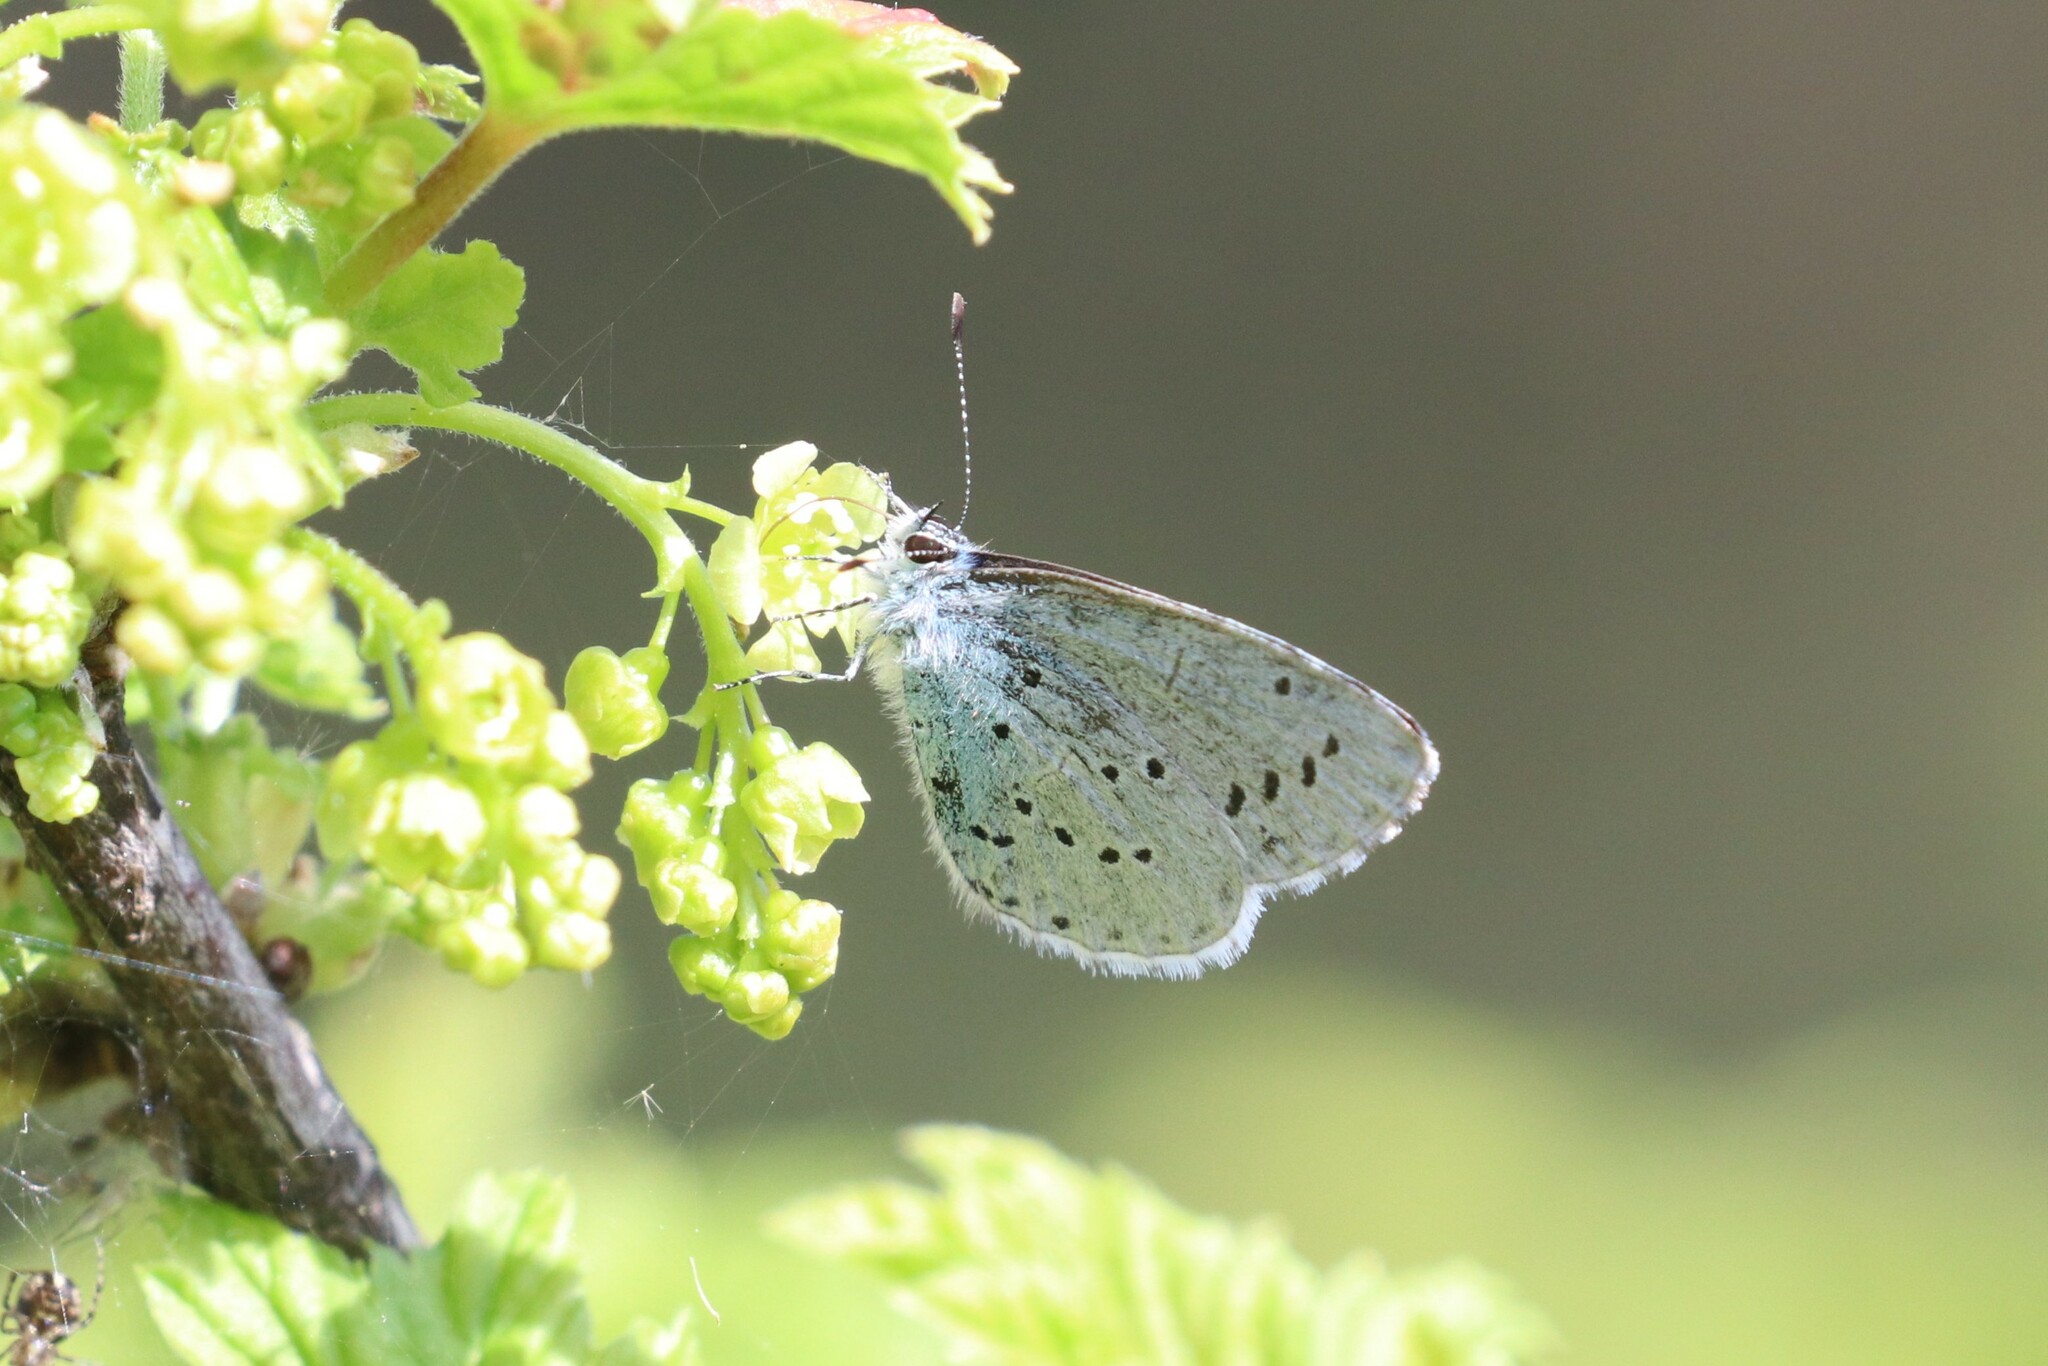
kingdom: Animalia
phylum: Arthropoda
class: Insecta
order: Lepidoptera
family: Lycaenidae
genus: Celastrina
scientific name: Celastrina argiolus
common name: Holly blue
